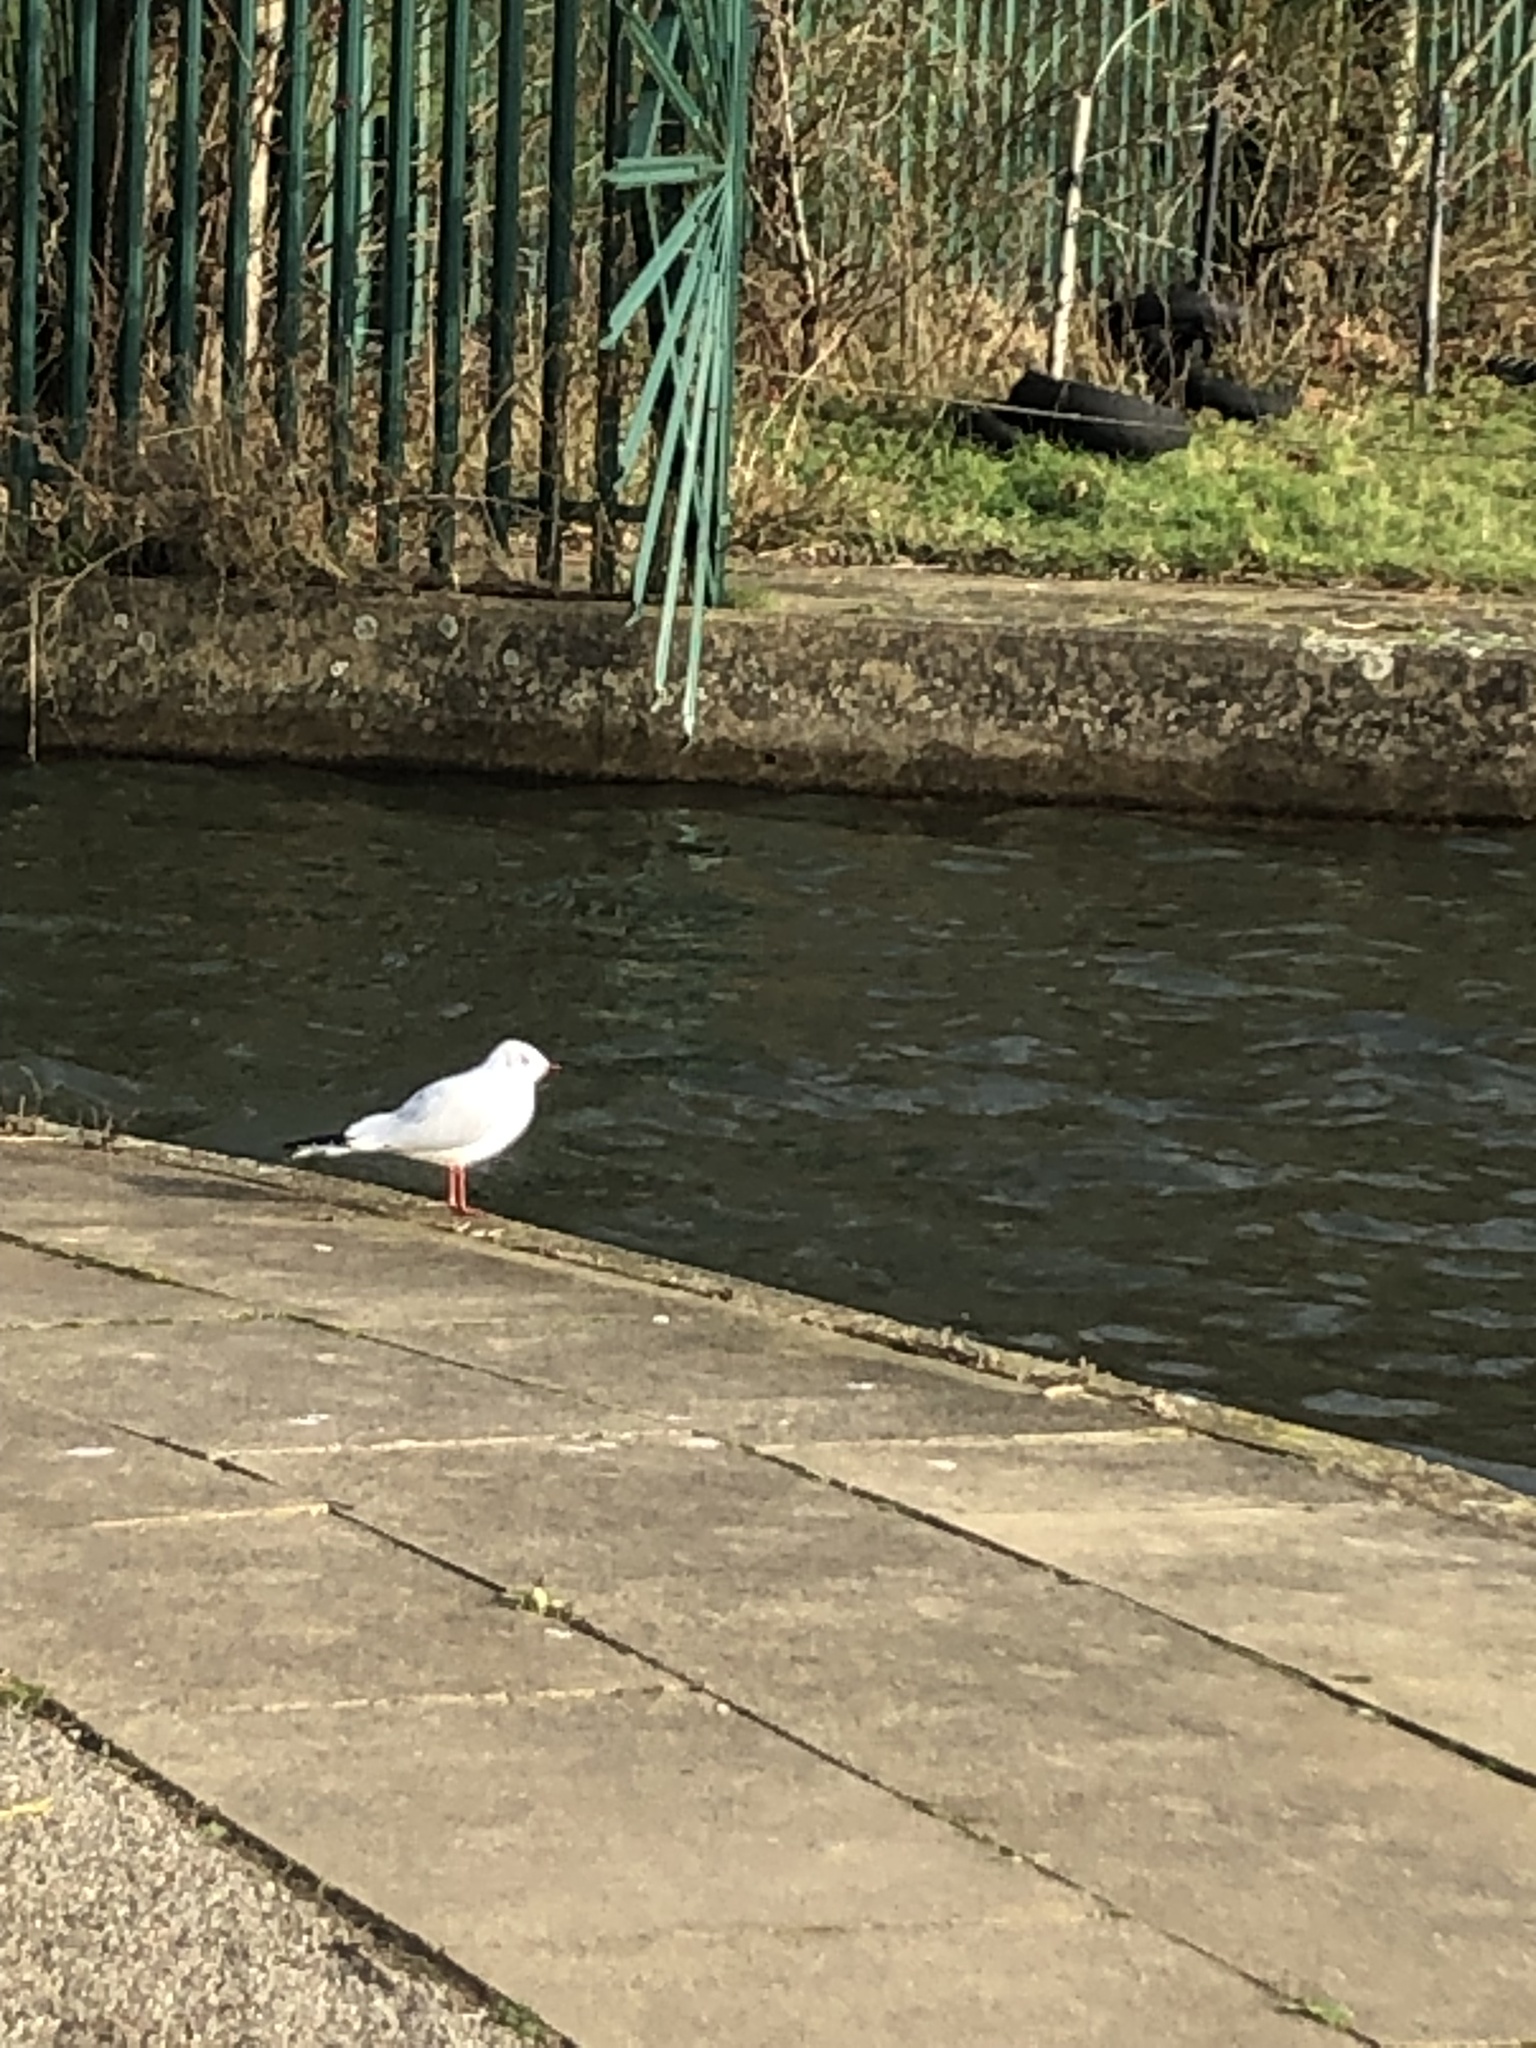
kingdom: Animalia
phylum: Chordata
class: Aves
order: Charadriiformes
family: Laridae
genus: Chroicocephalus
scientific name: Chroicocephalus ridibundus
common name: Black-headed gull
